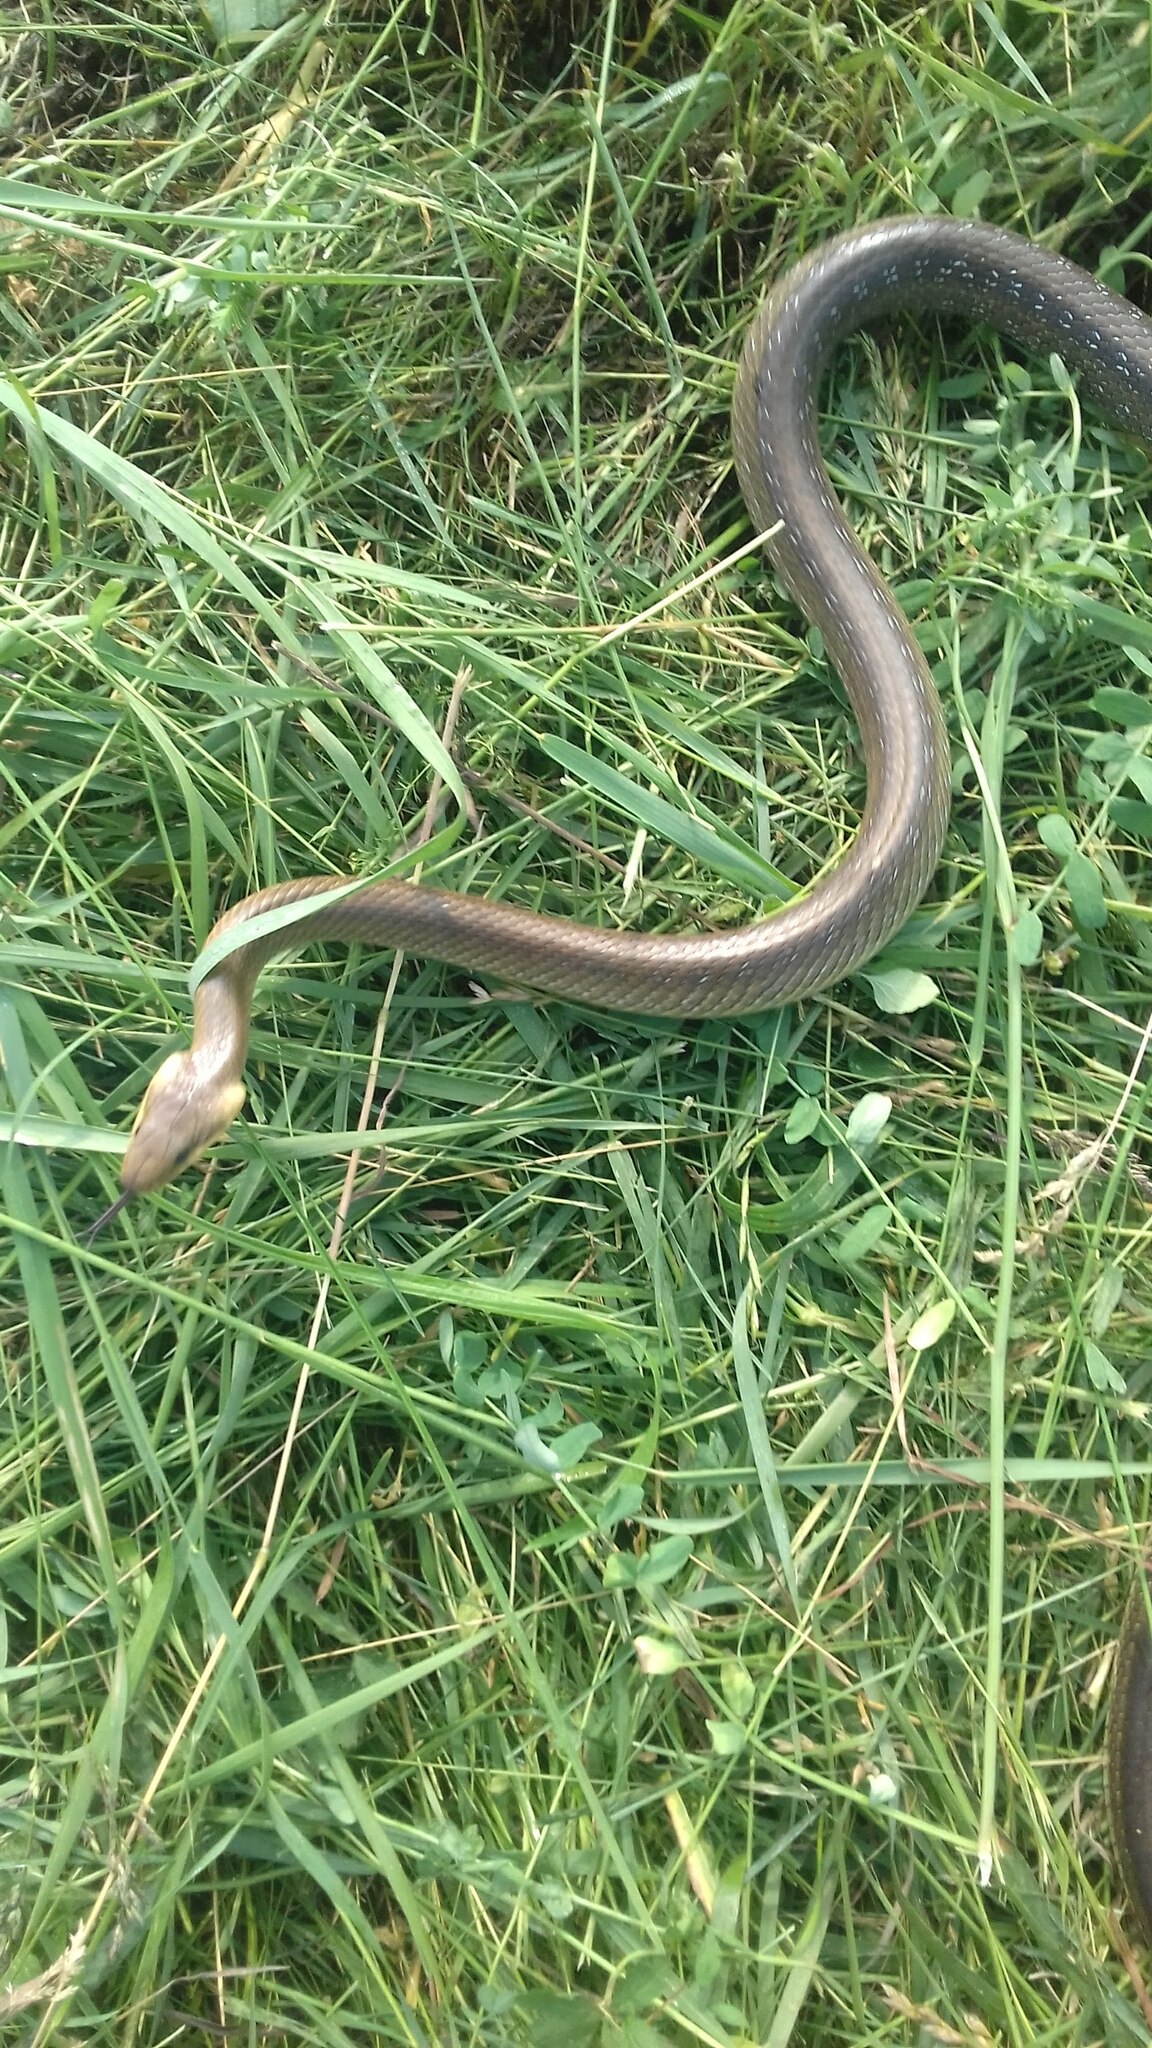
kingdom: Animalia
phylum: Chordata
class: Squamata
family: Colubridae
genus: Zamenis
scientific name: Zamenis longissimus
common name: Aesculapean snake
